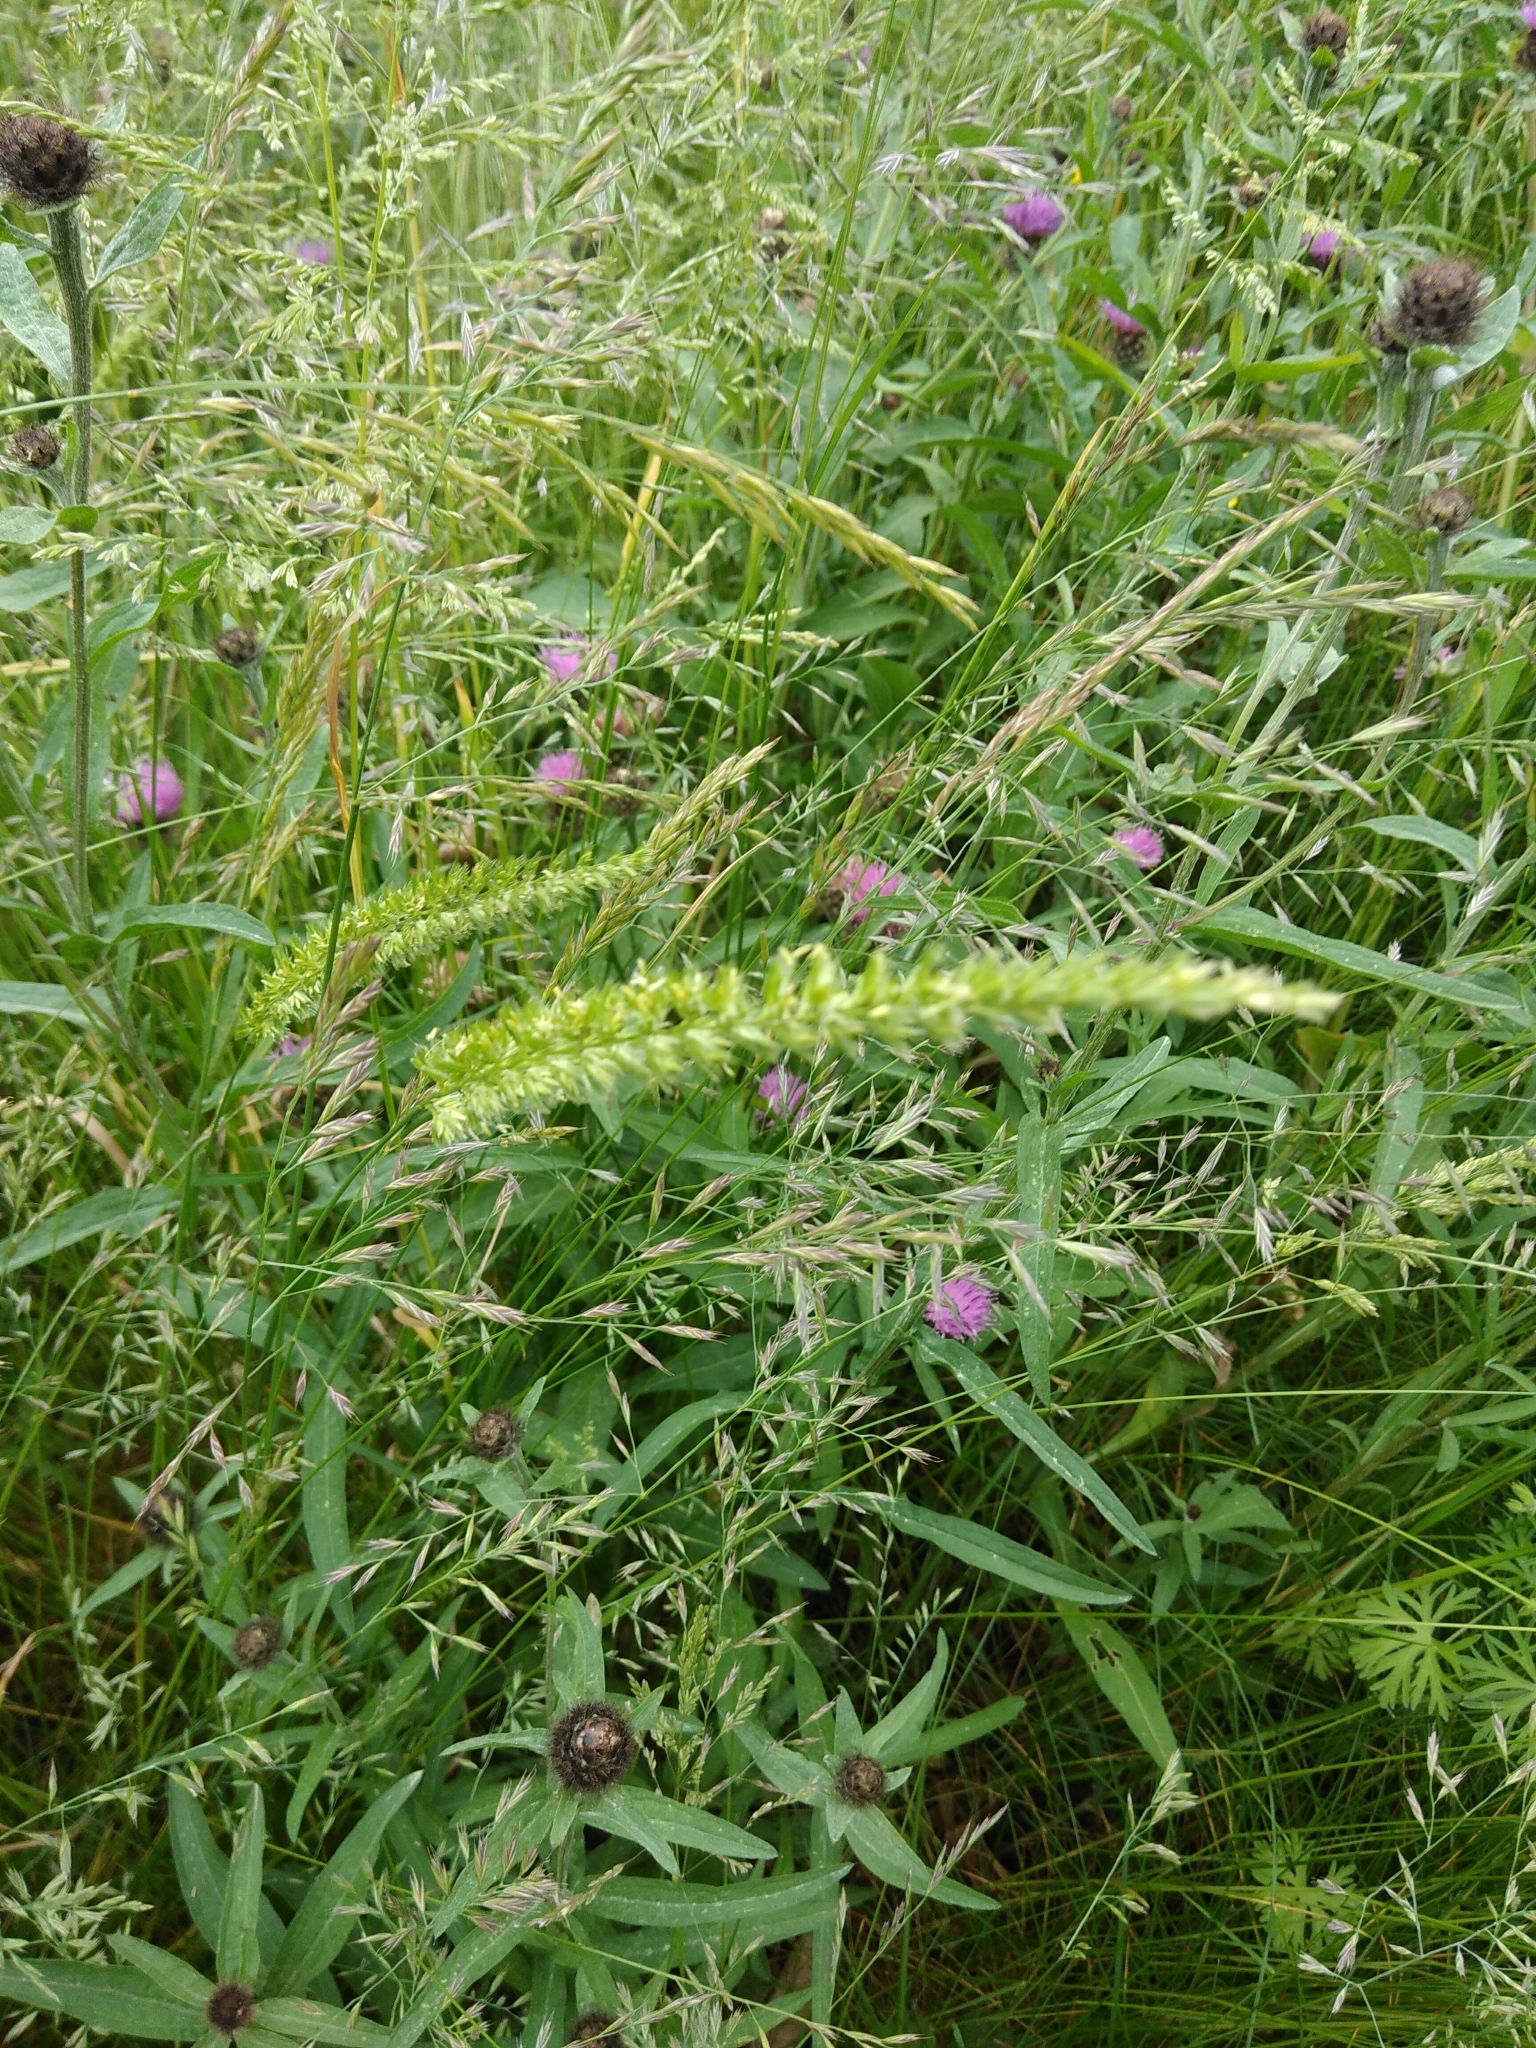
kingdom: Plantae
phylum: Tracheophyta
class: Liliopsida
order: Poales
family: Poaceae
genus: Cynosurus
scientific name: Cynosurus cristatus
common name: Crested dog's-tail
